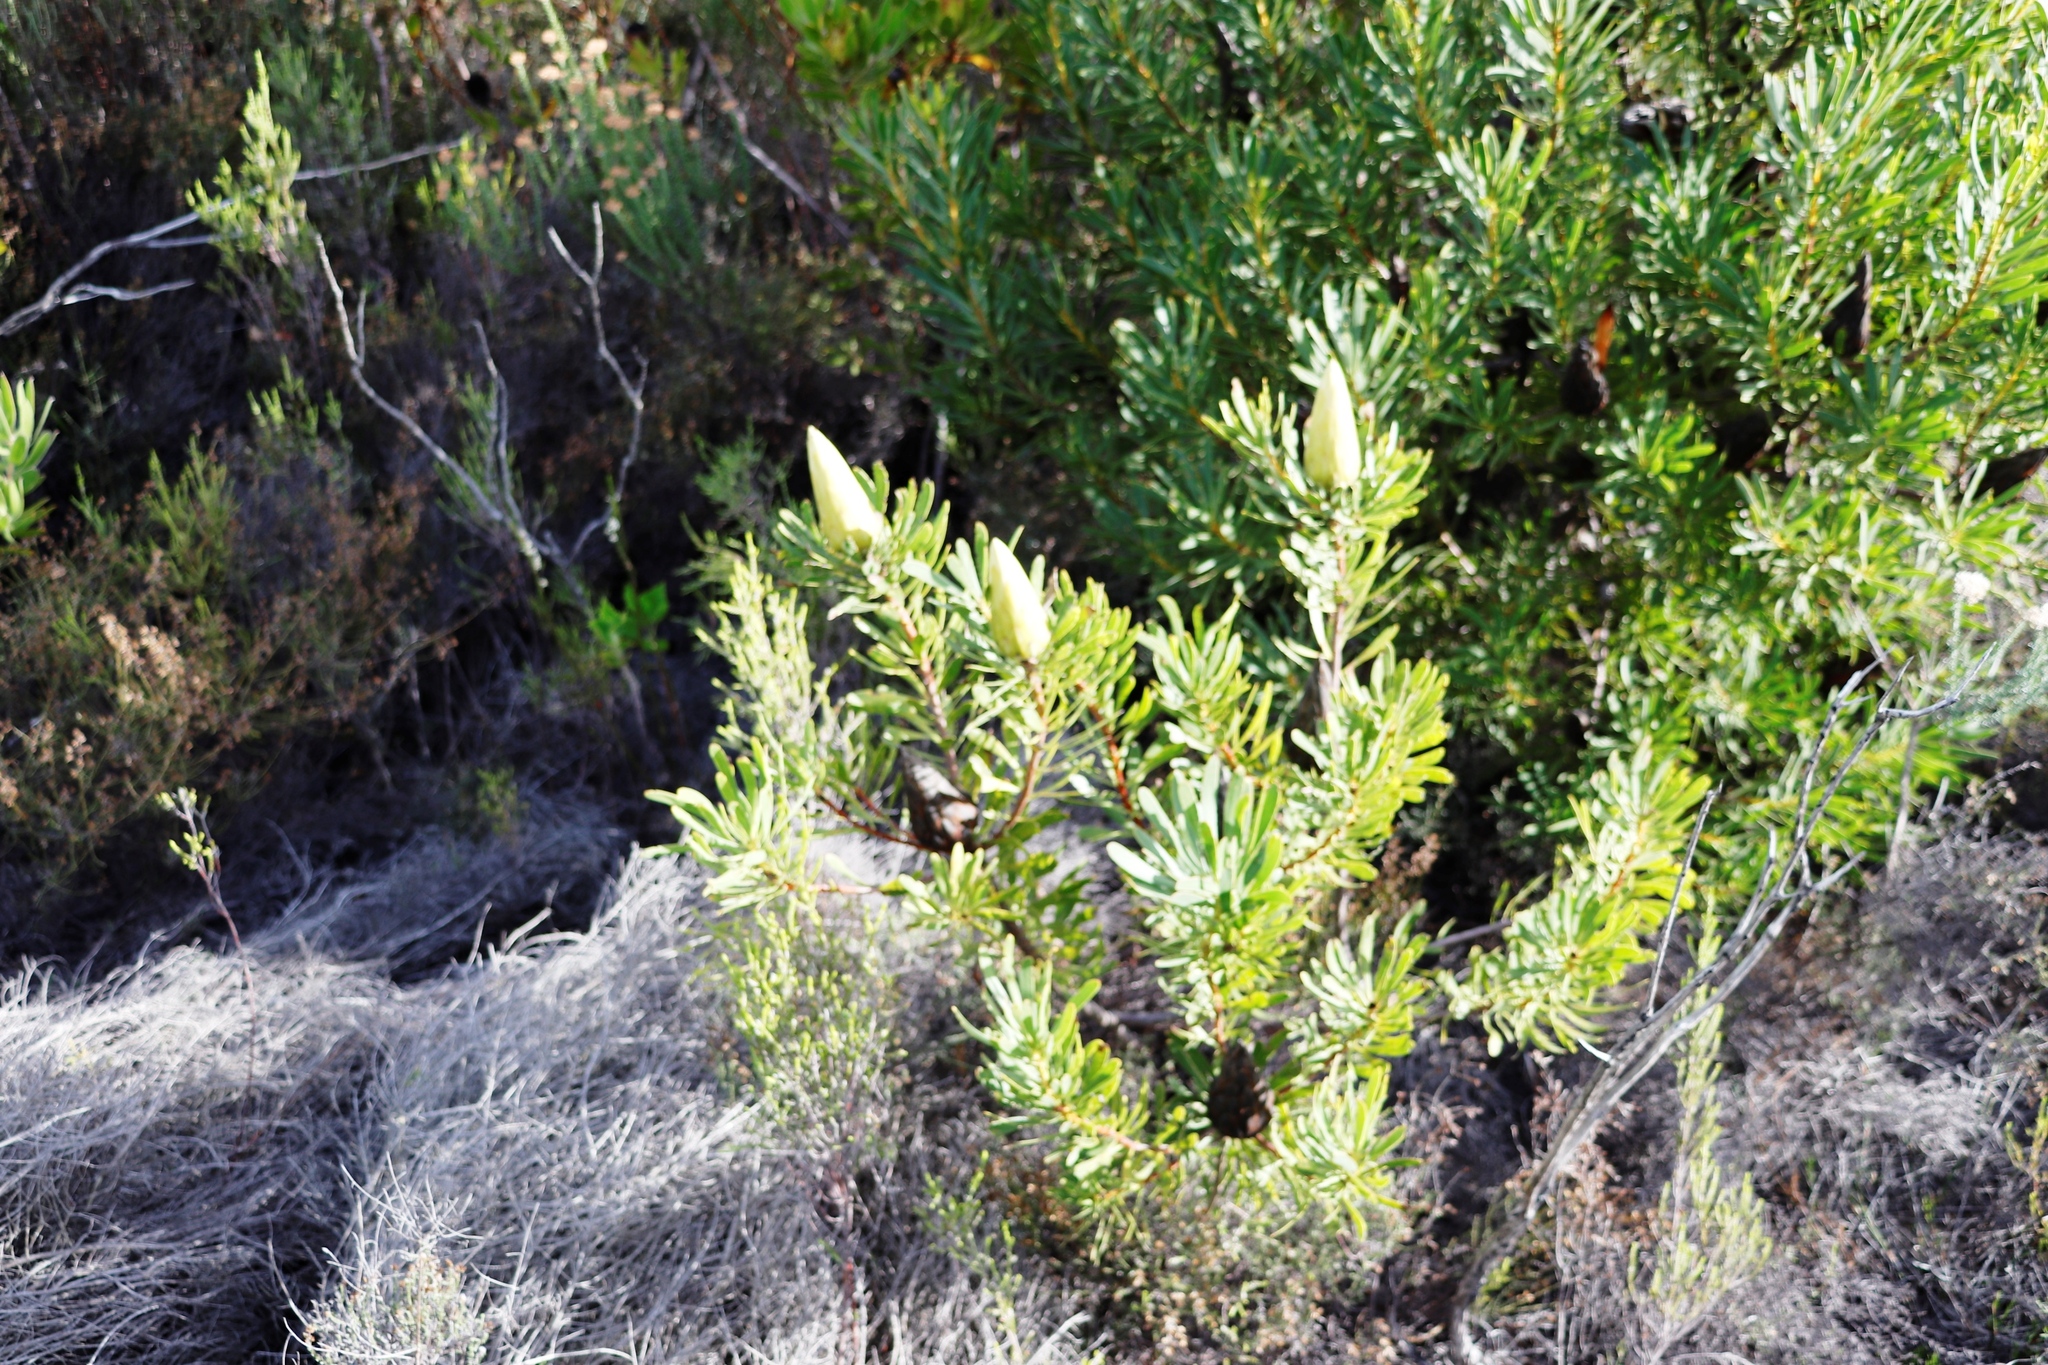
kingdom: Plantae
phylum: Tracheophyta
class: Magnoliopsida
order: Proteales
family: Proteaceae
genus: Protea
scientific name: Protea repens
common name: Sugarbush
